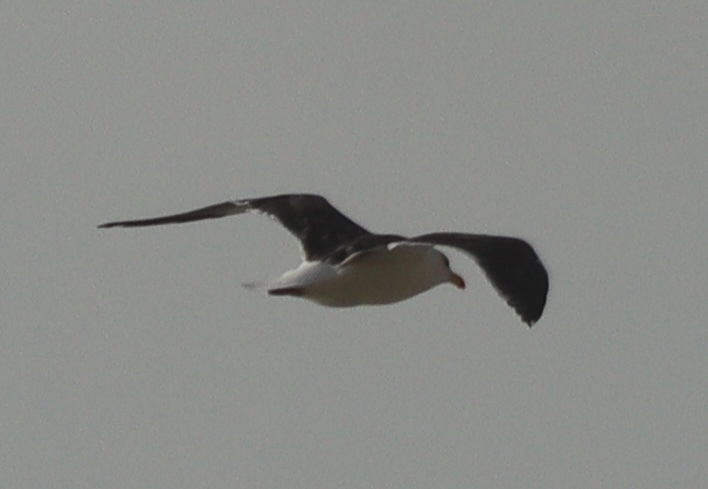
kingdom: Animalia
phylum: Chordata
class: Aves
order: Charadriiformes
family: Laridae
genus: Larus
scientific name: Larus marinus
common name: Great black-backed gull
